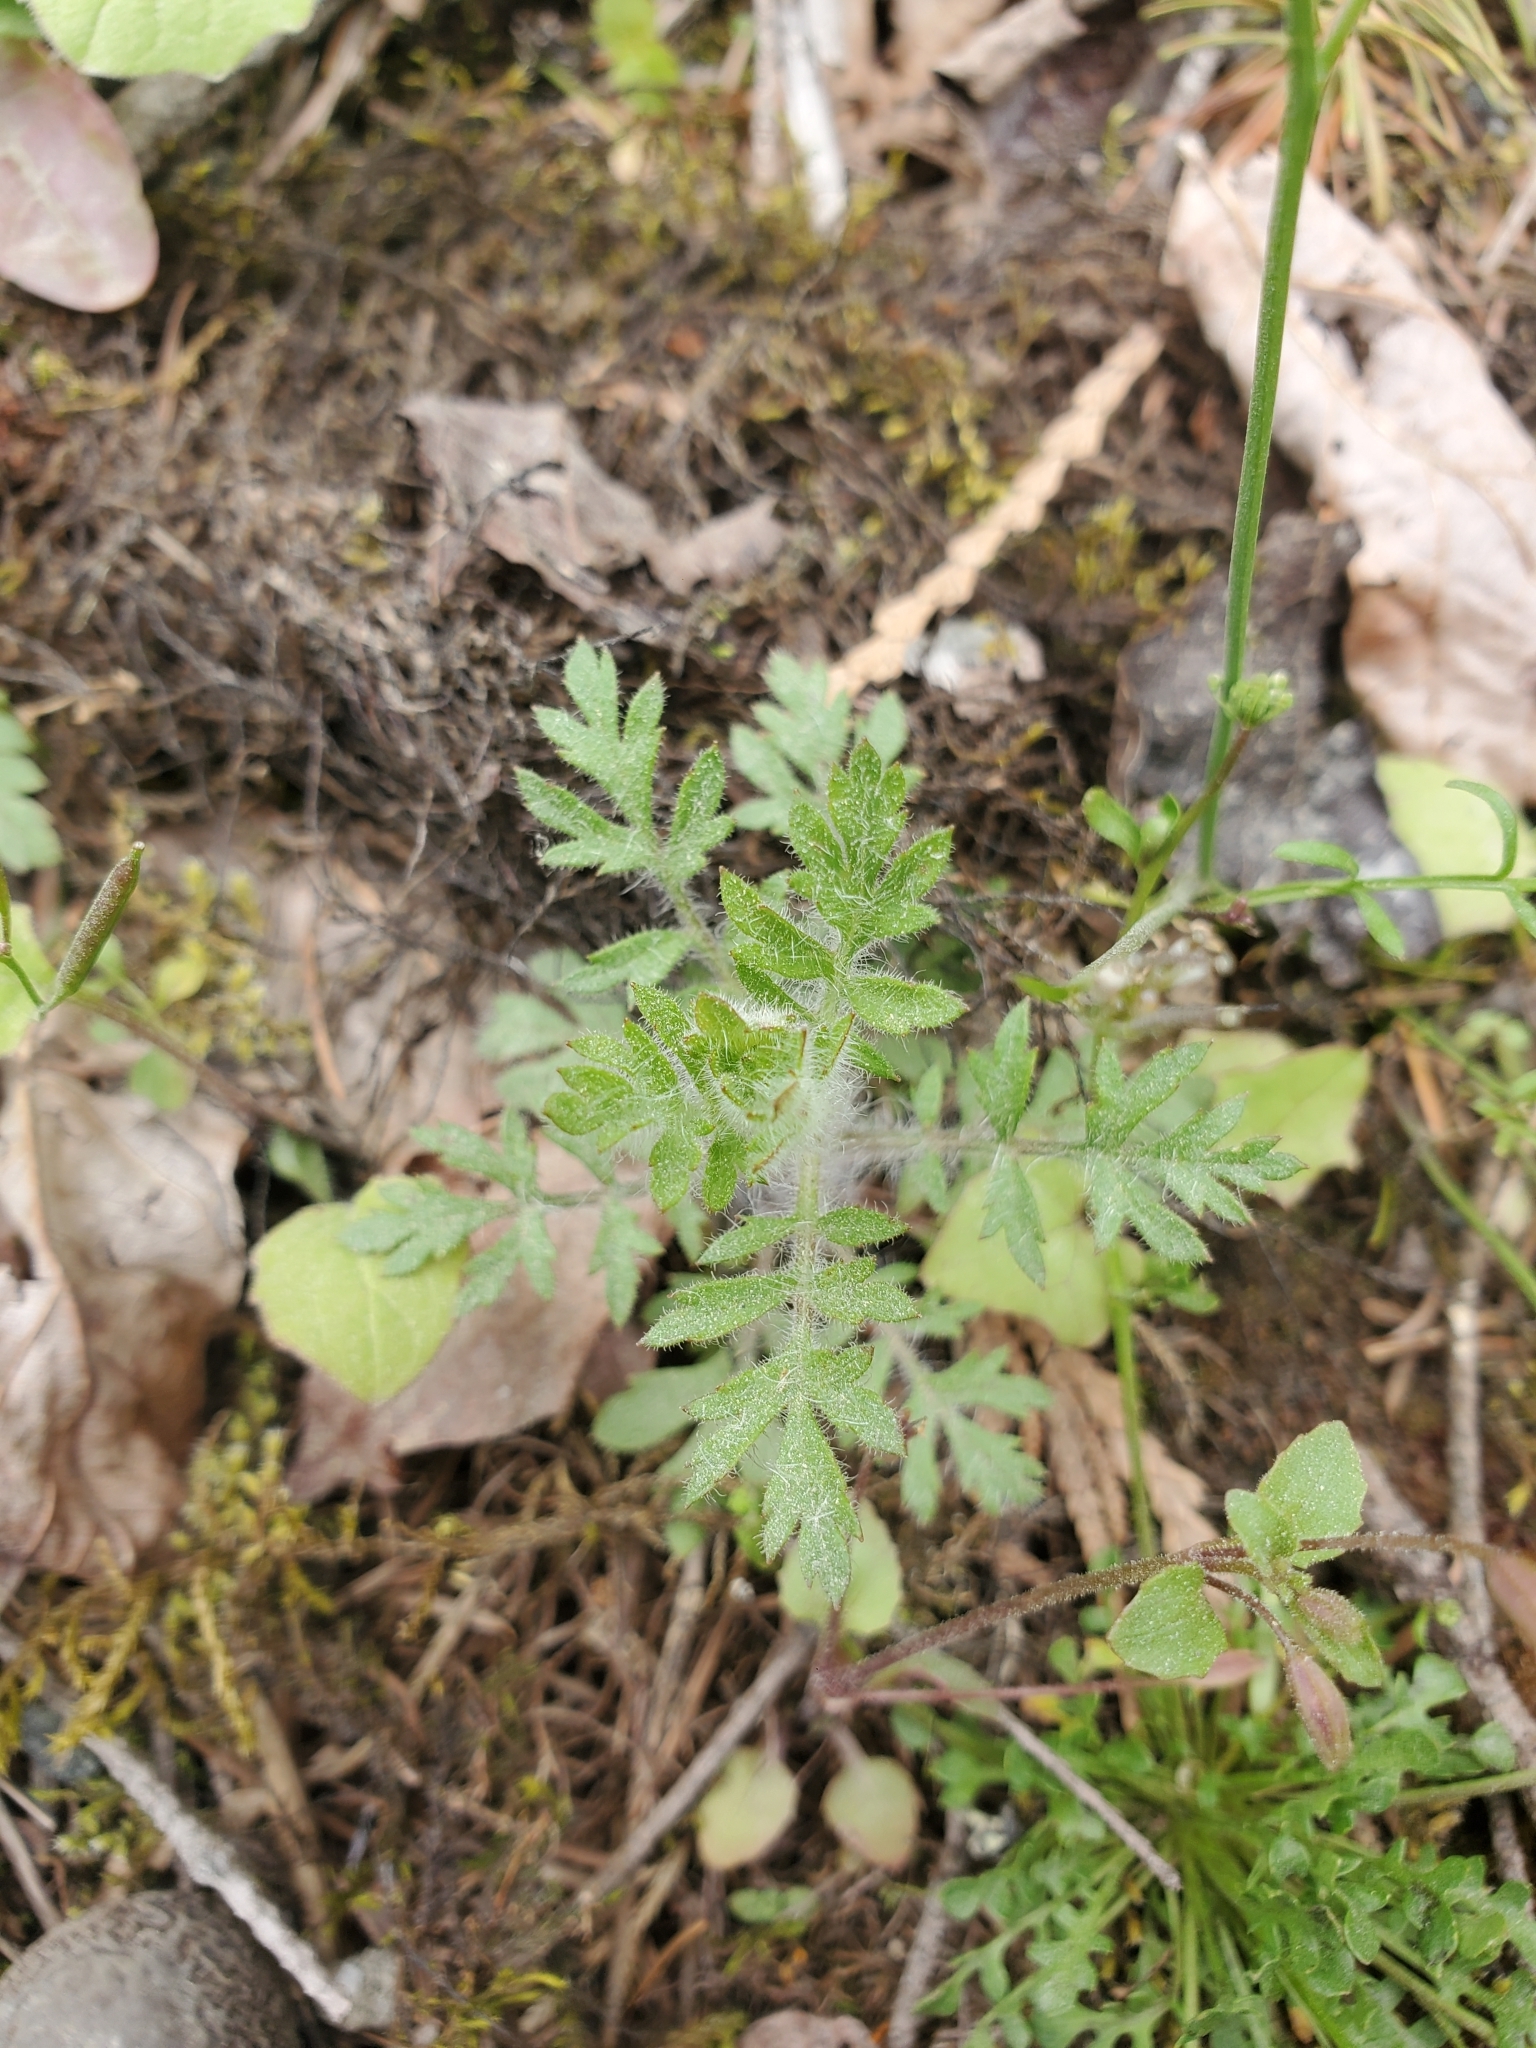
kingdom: Plantae
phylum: Tracheophyta
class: Magnoliopsida
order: Ericales
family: Polemoniaceae
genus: Collomia
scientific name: Collomia heterophylla
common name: Variable-leaved collomia
